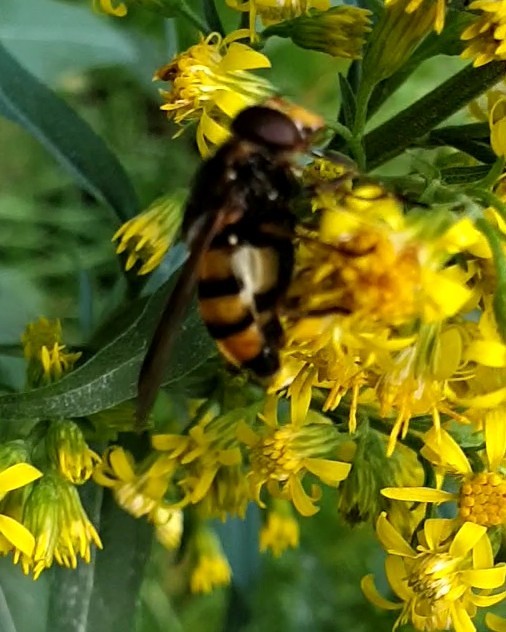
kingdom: Animalia
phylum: Arthropoda
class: Insecta
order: Diptera
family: Syrphidae
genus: Volucella
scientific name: Volucella inanis
